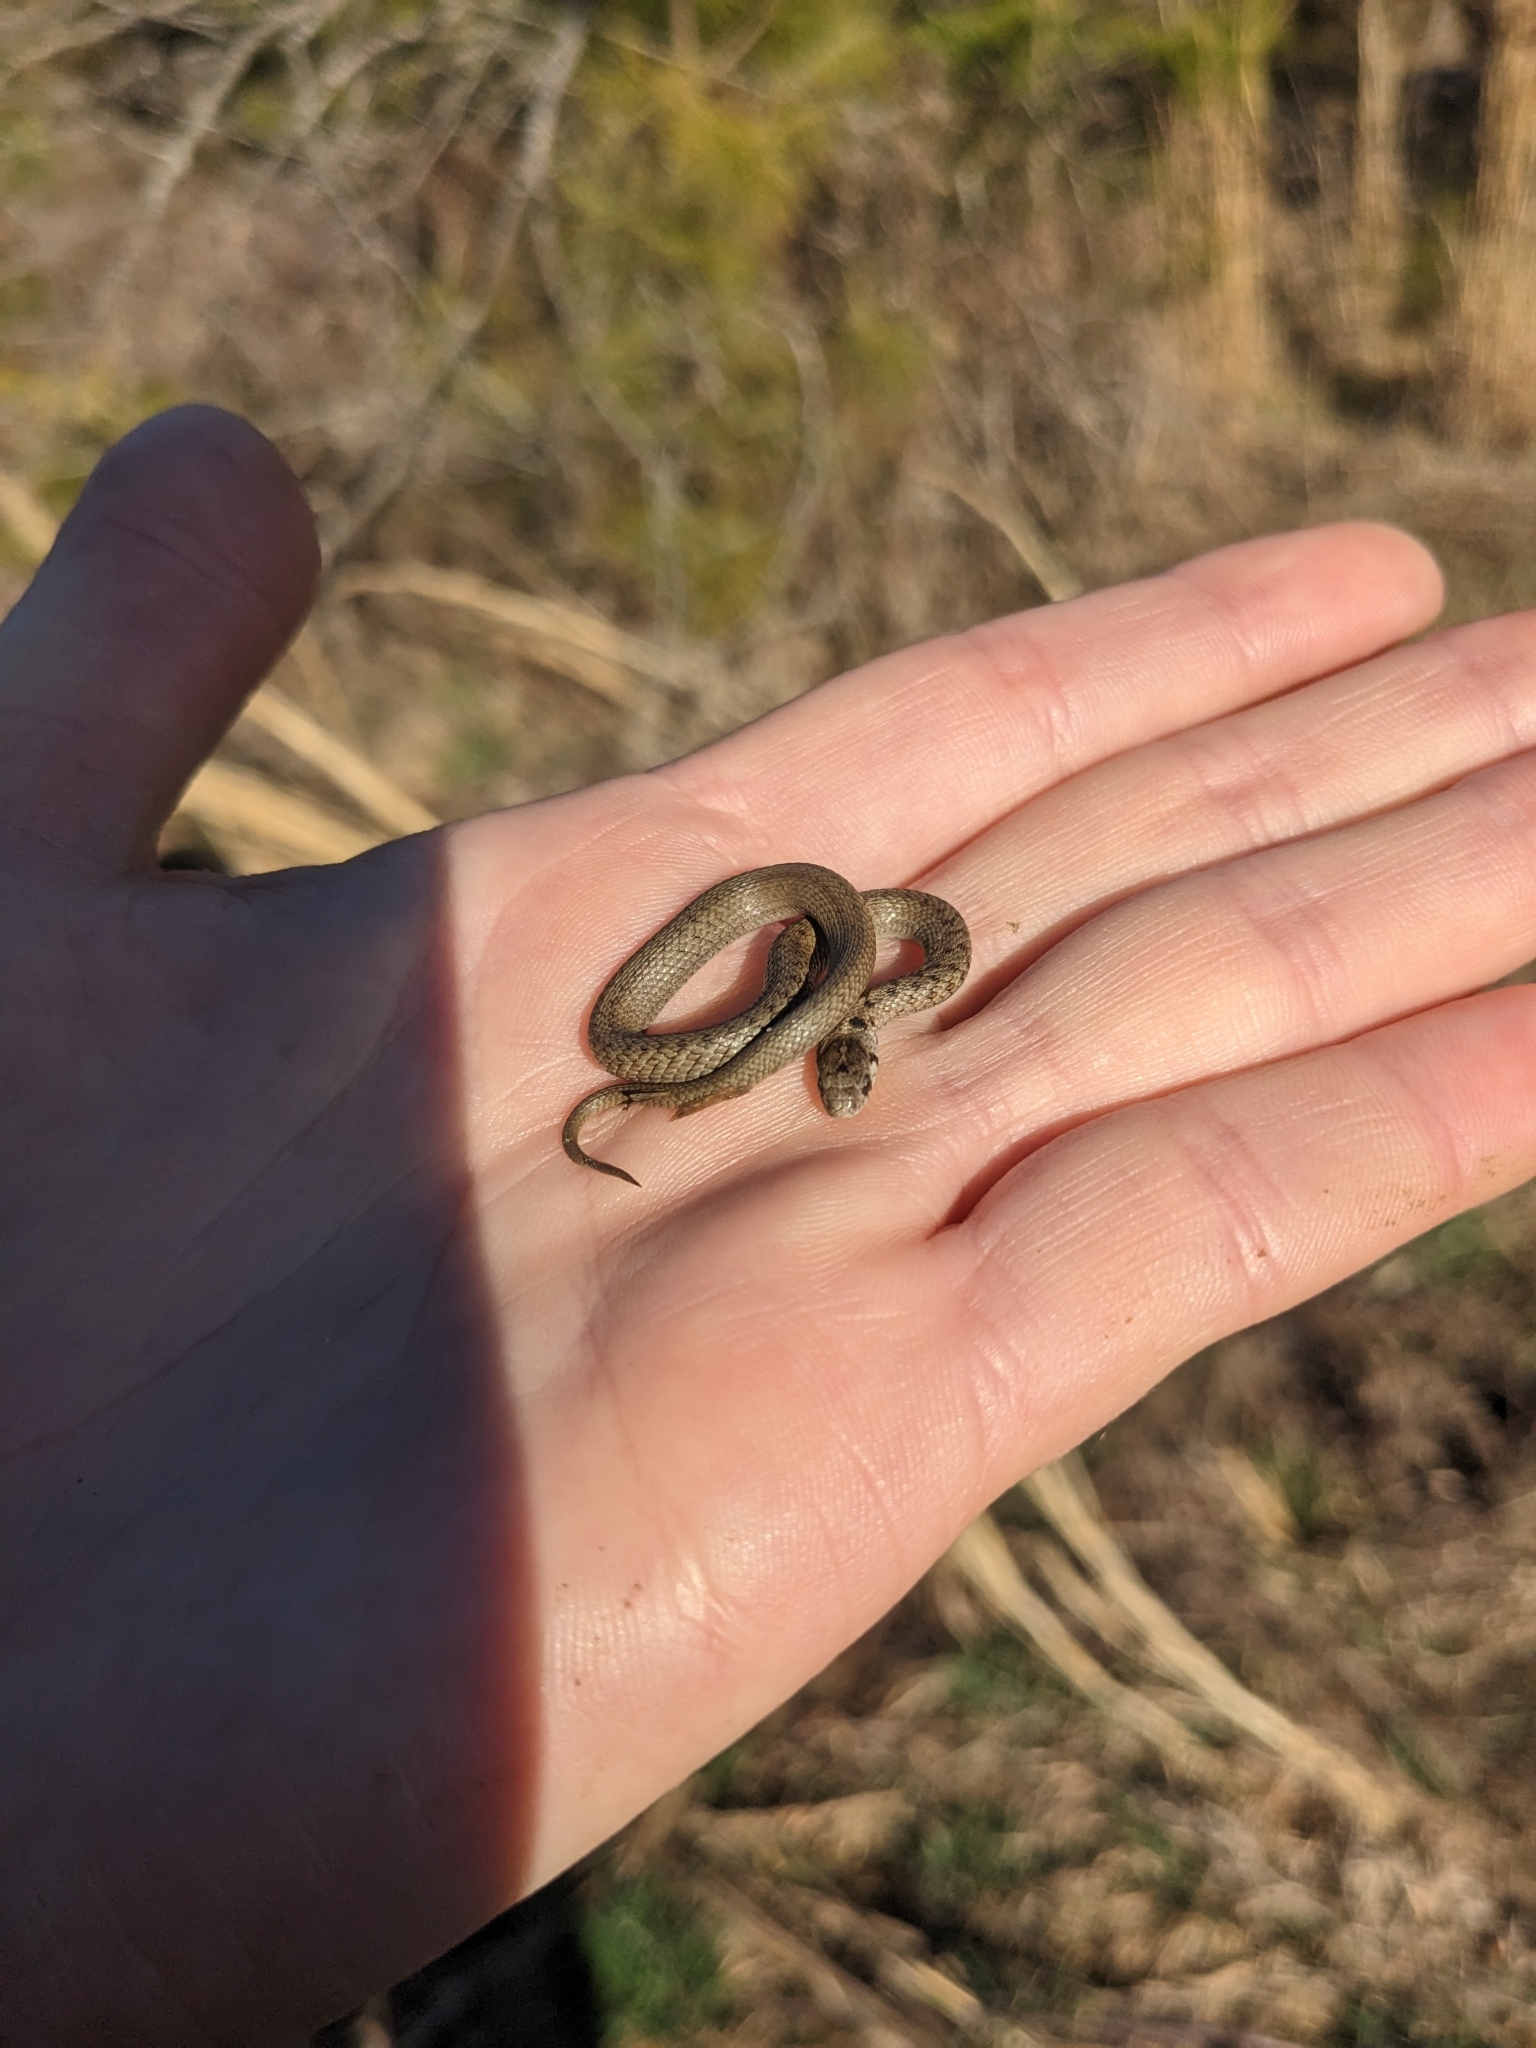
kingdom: Animalia
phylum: Chordata
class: Squamata
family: Colubridae
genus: Storeria
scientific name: Storeria dekayi
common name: (dekay’s) brown snake
